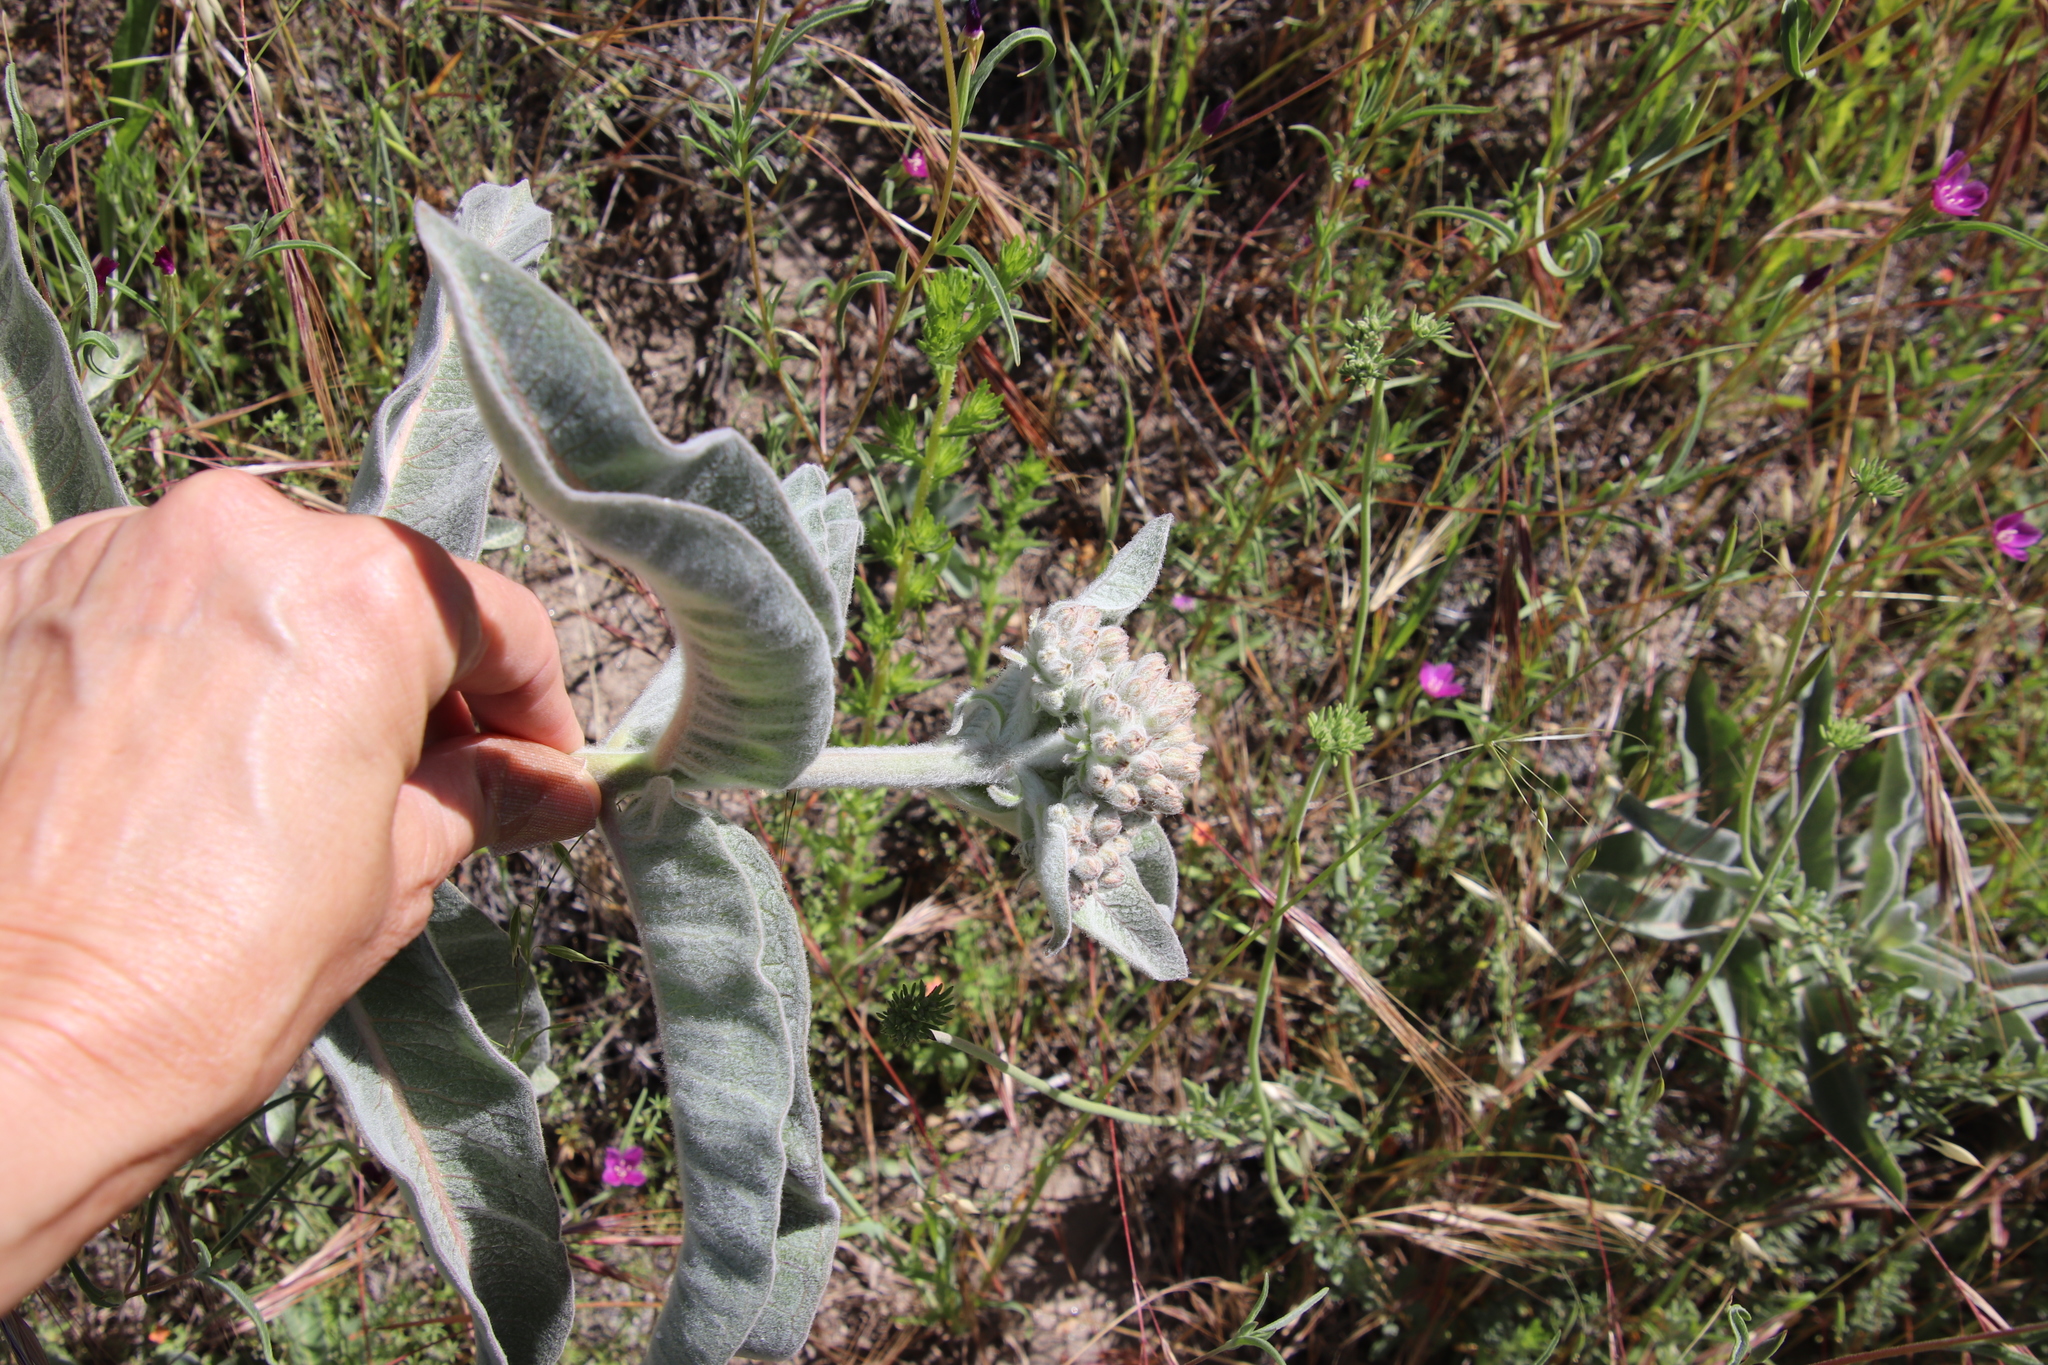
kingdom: Plantae
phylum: Tracheophyta
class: Magnoliopsida
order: Gentianales
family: Apocynaceae
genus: Asclepias
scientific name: Asclepias eriocarpa
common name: Indian milkweed
